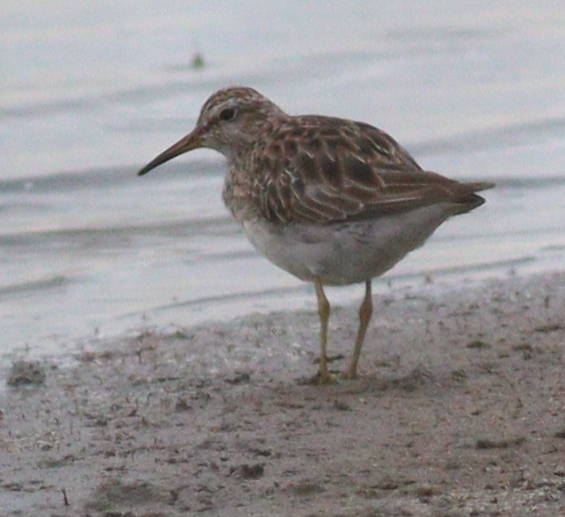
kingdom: Animalia
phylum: Chordata
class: Aves
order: Charadriiformes
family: Scolopacidae
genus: Calidris
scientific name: Calidris melanotos
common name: Pectoral sandpiper
